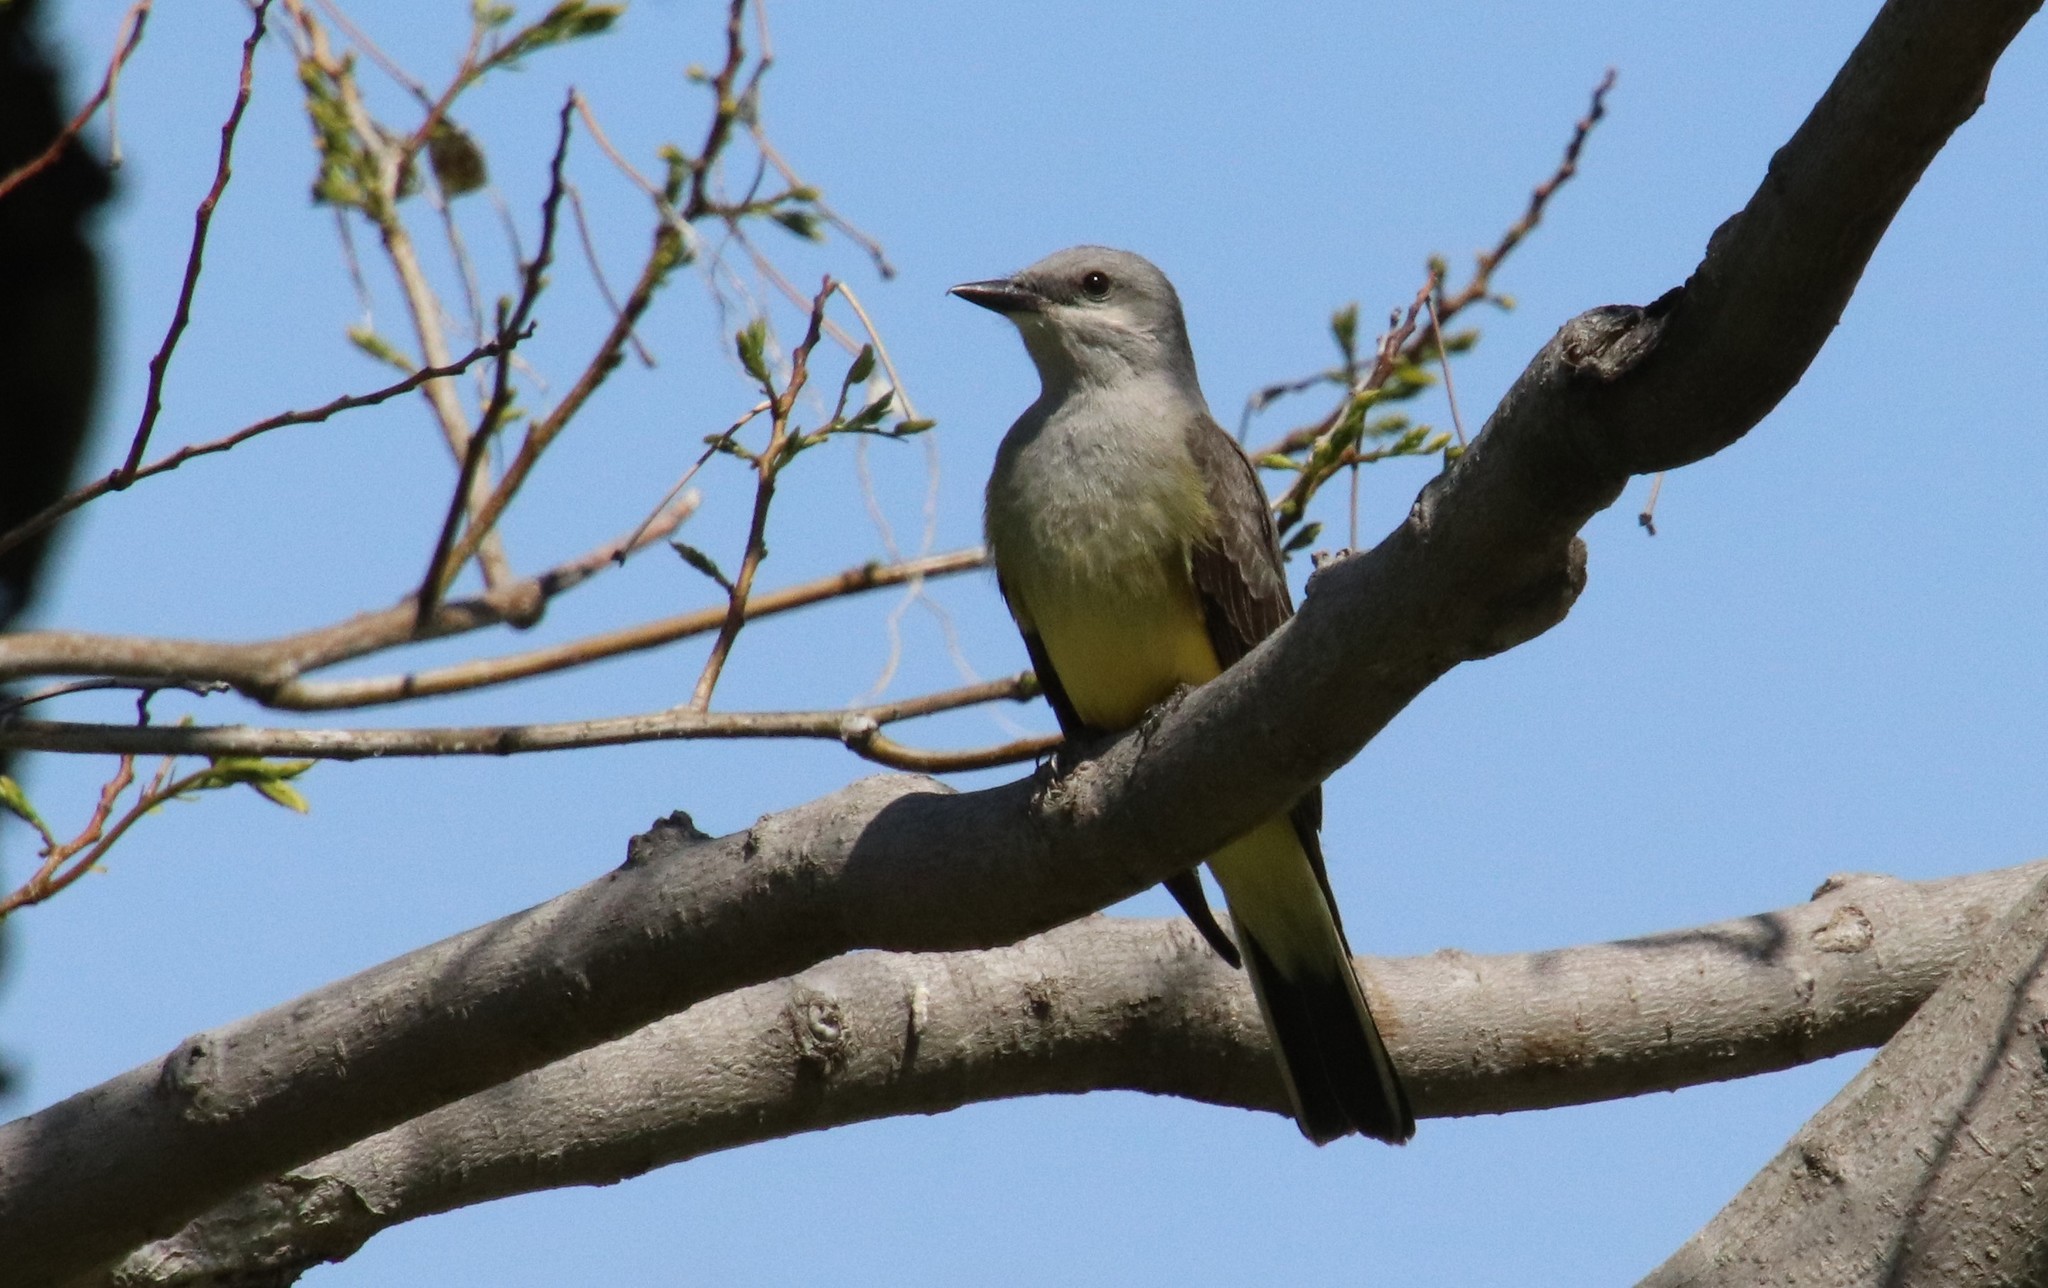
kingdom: Animalia
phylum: Chordata
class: Aves
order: Passeriformes
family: Tyrannidae
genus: Tyrannus
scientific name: Tyrannus verticalis
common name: Western kingbird
